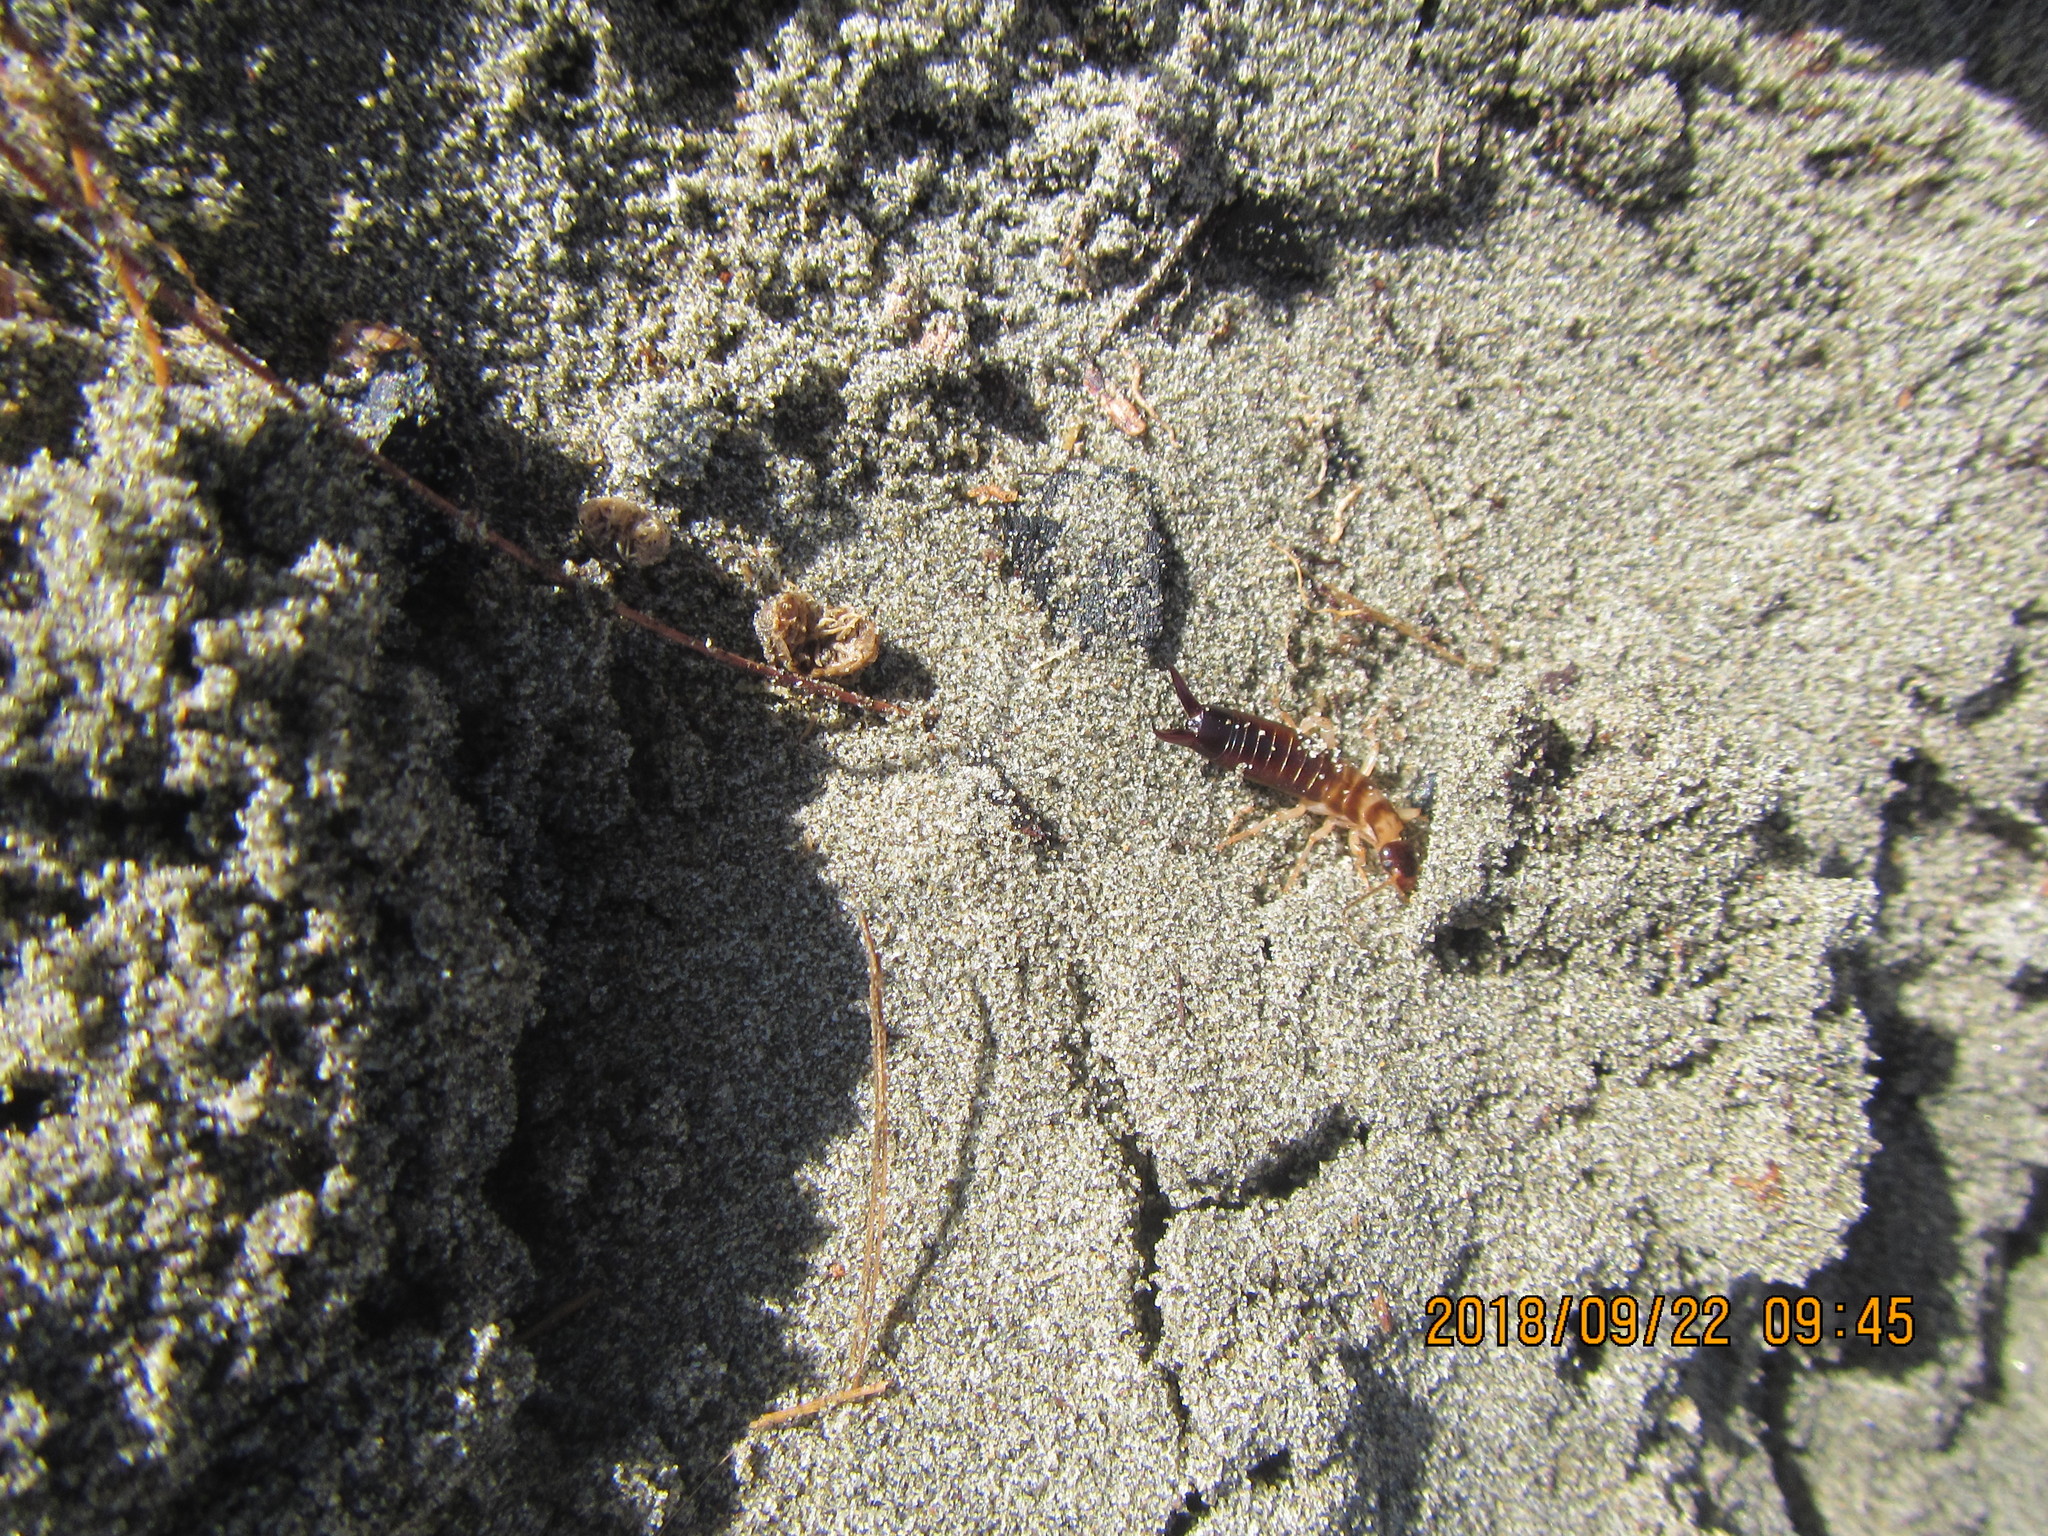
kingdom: Animalia
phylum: Arthropoda
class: Insecta
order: Dermaptera
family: Anisolabididae
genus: Anisolabis
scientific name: Anisolabis littorea
